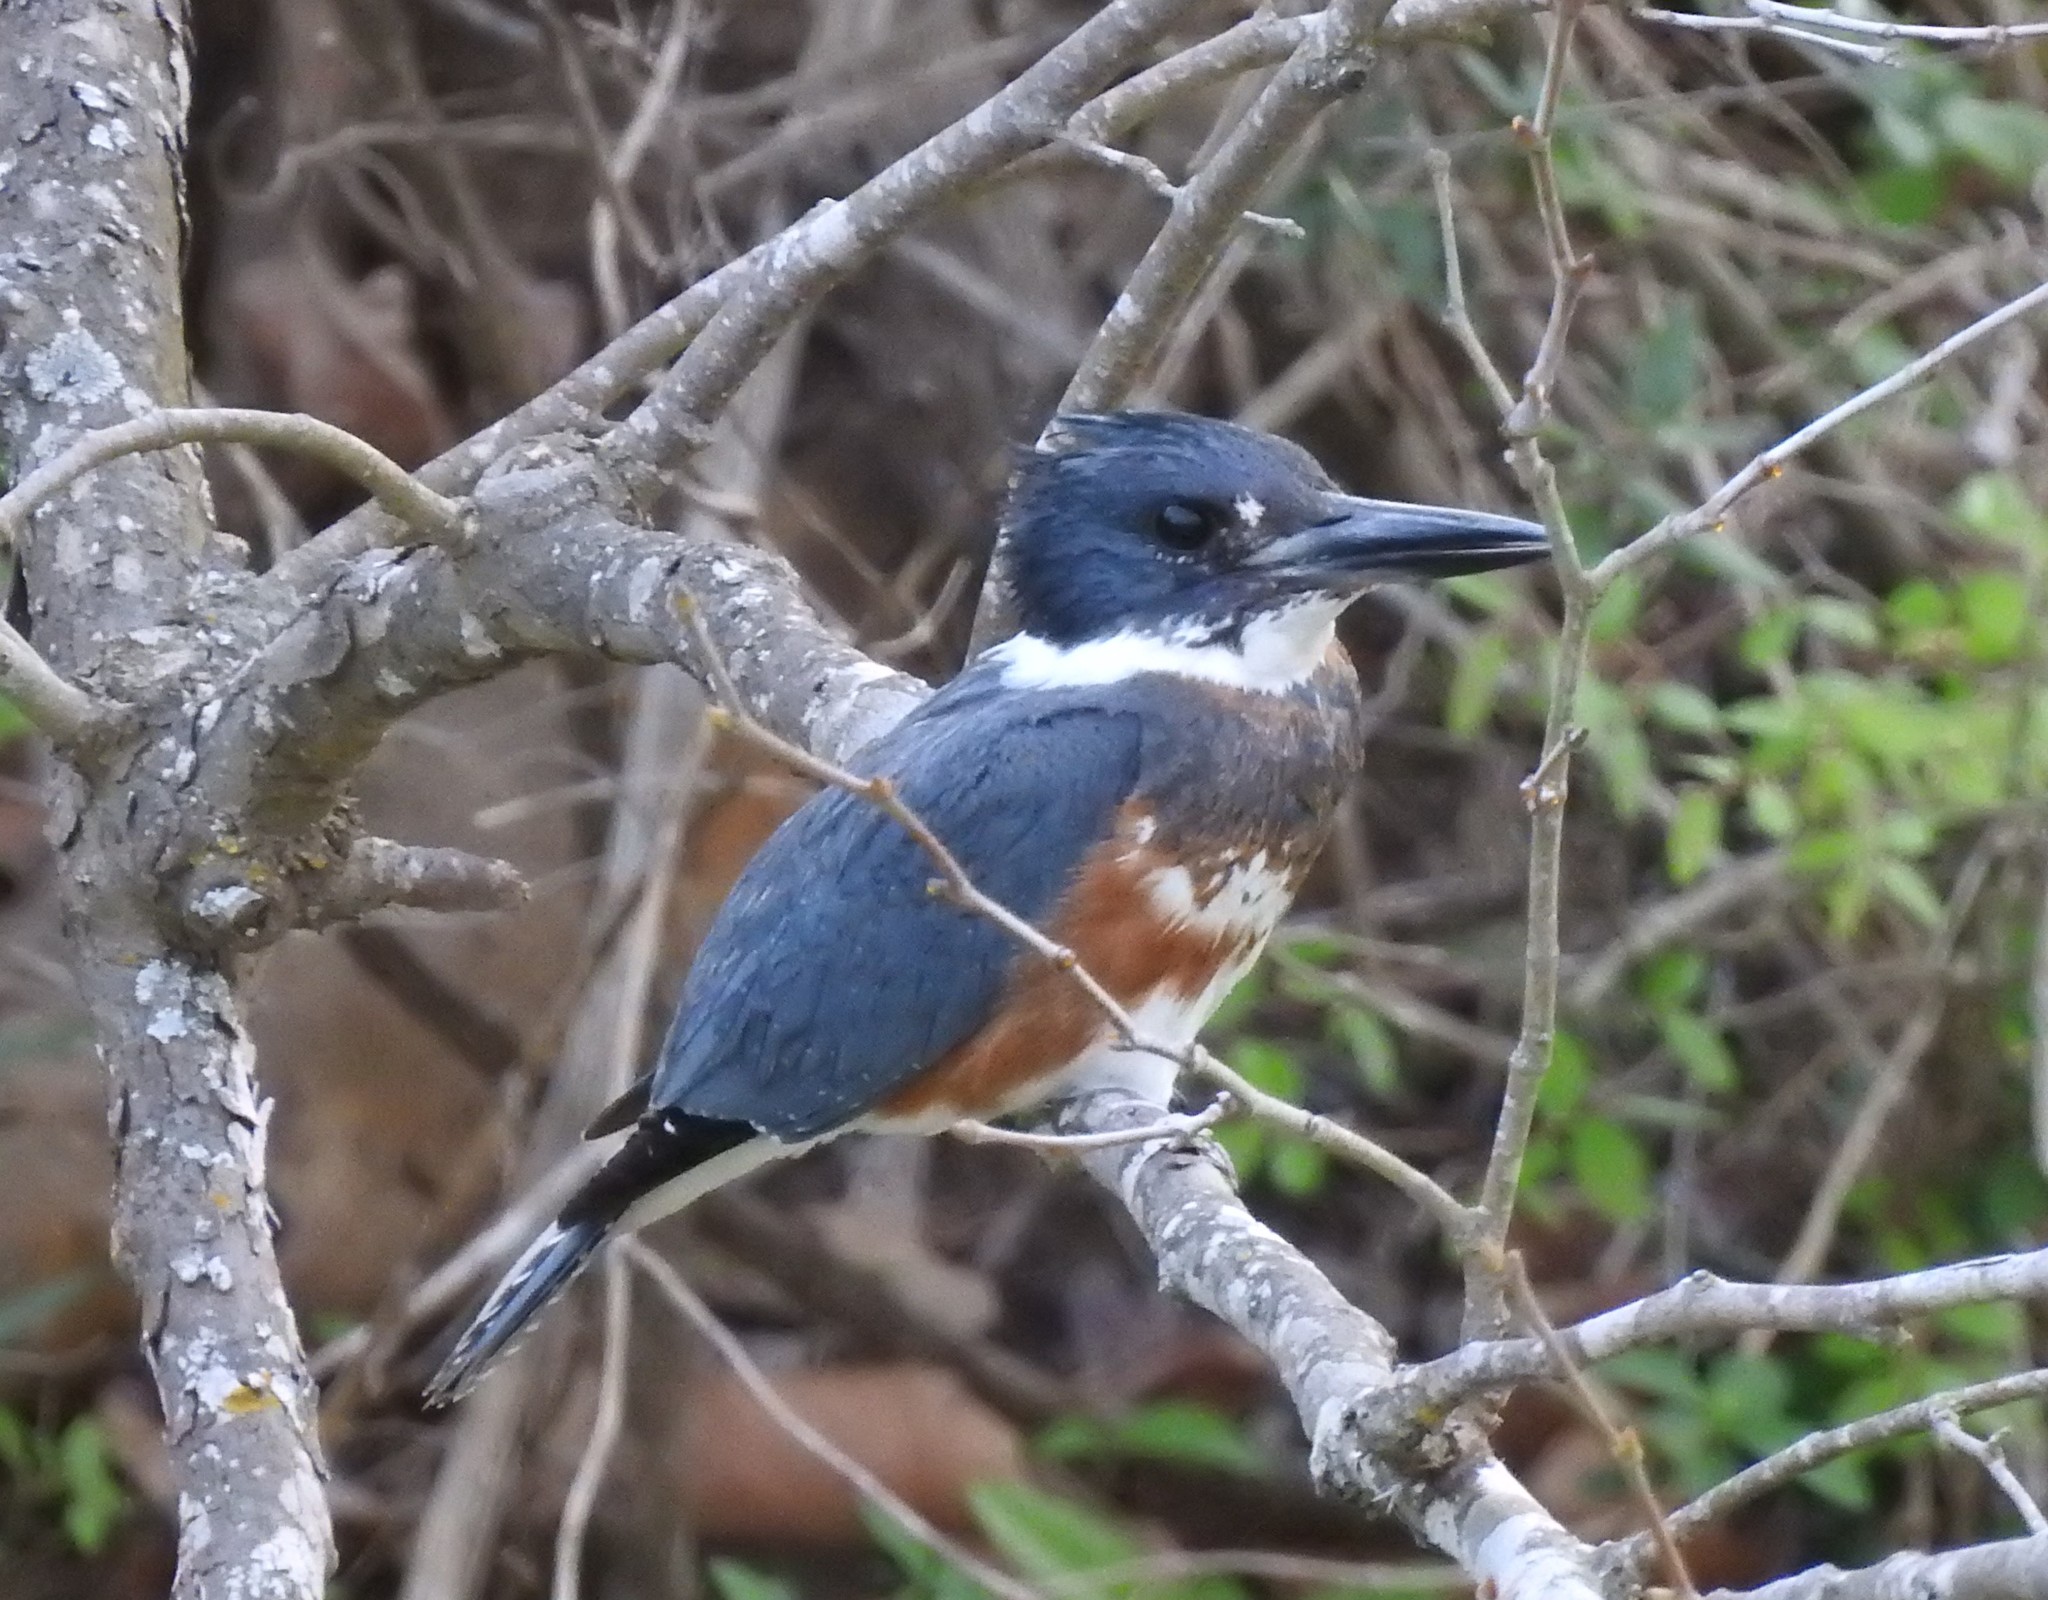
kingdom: Animalia
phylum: Chordata
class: Aves
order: Coraciiformes
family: Alcedinidae
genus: Megaceryle
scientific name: Megaceryle alcyon
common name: Belted kingfisher
